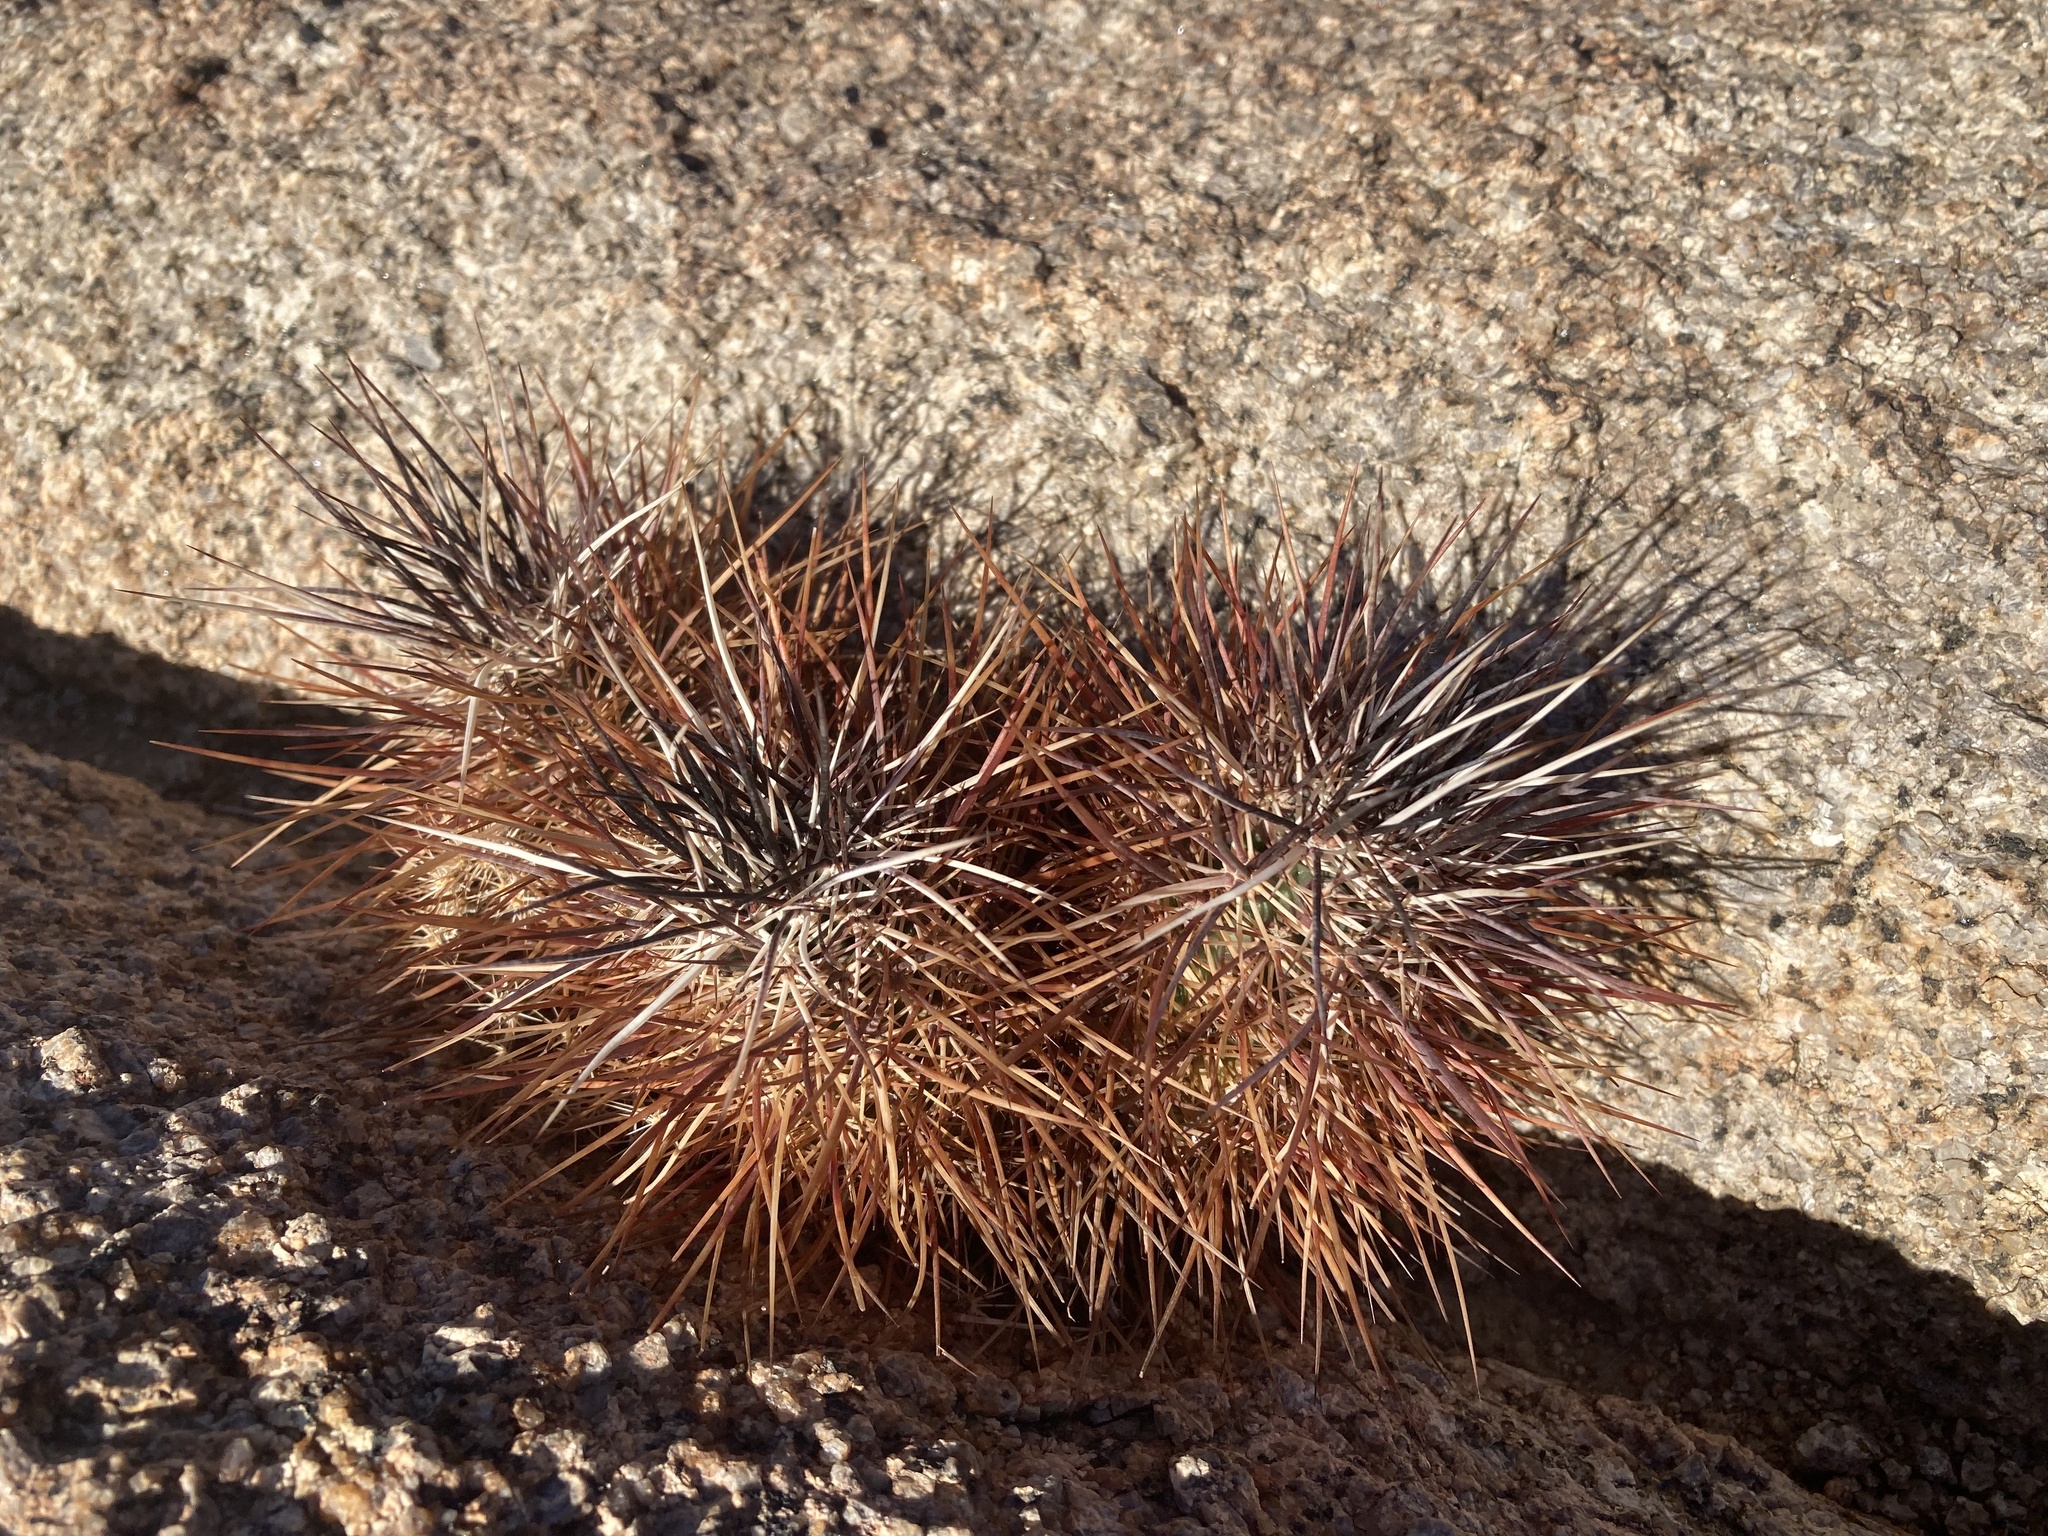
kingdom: Plantae
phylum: Tracheophyta
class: Magnoliopsida
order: Caryophyllales
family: Cactaceae
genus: Echinocereus
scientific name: Echinocereus engelmannii
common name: Engelmann's hedgehog cactus
